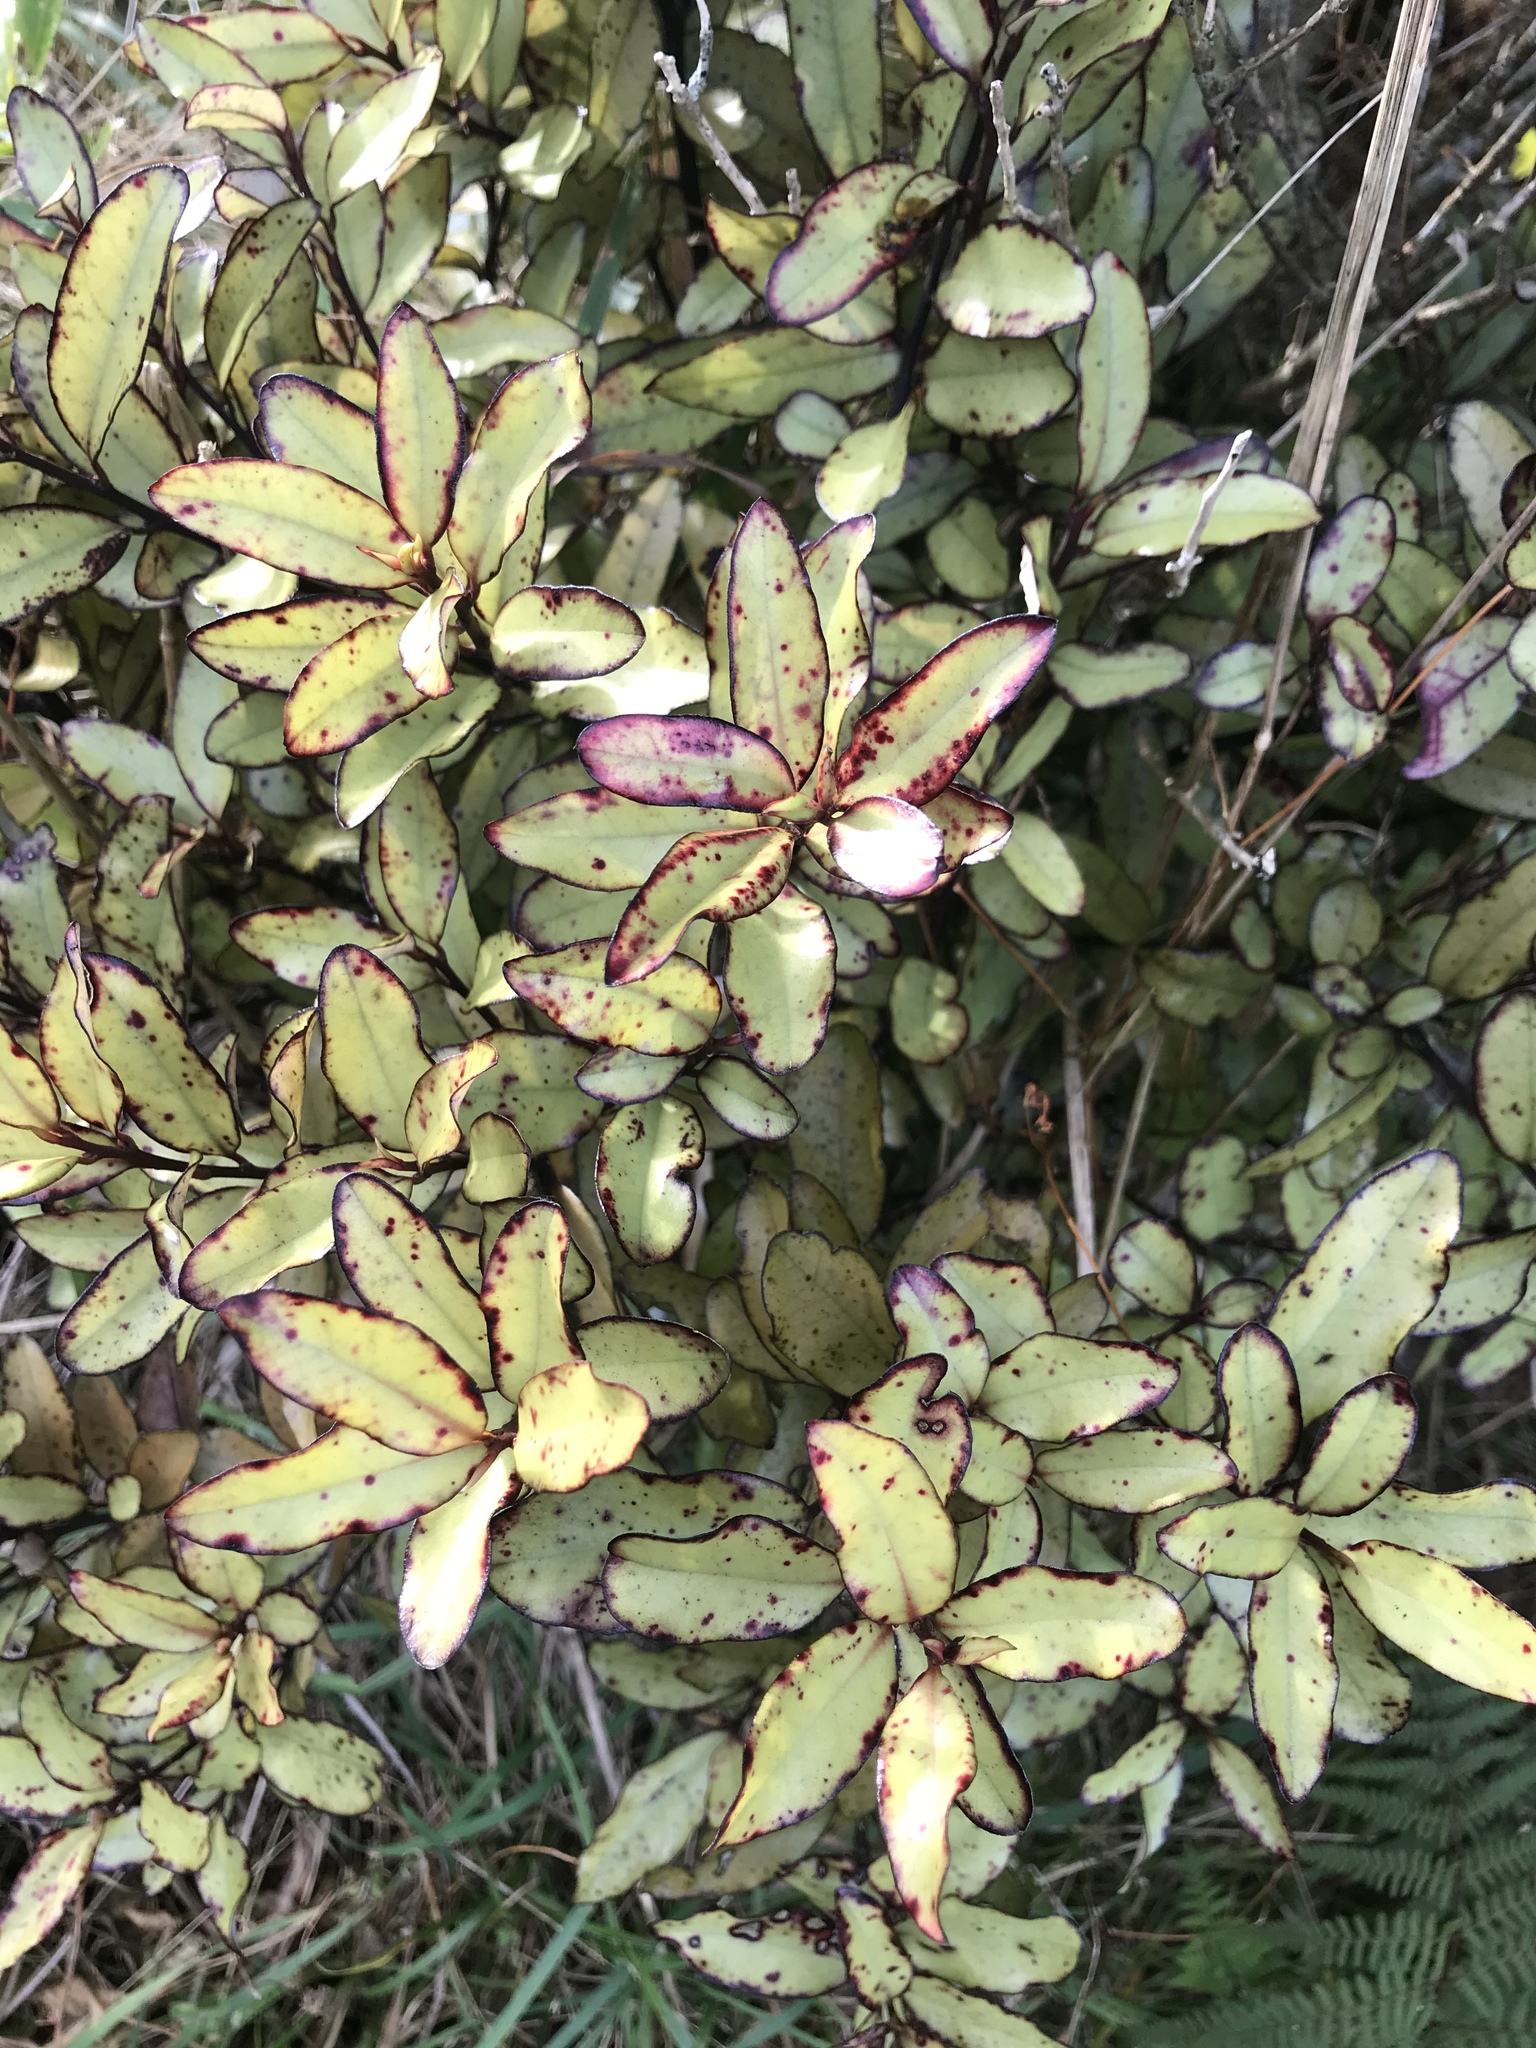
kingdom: Plantae
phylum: Tracheophyta
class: Magnoliopsida
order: Canellales
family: Winteraceae
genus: Pseudowintera
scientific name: Pseudowintera colorata
